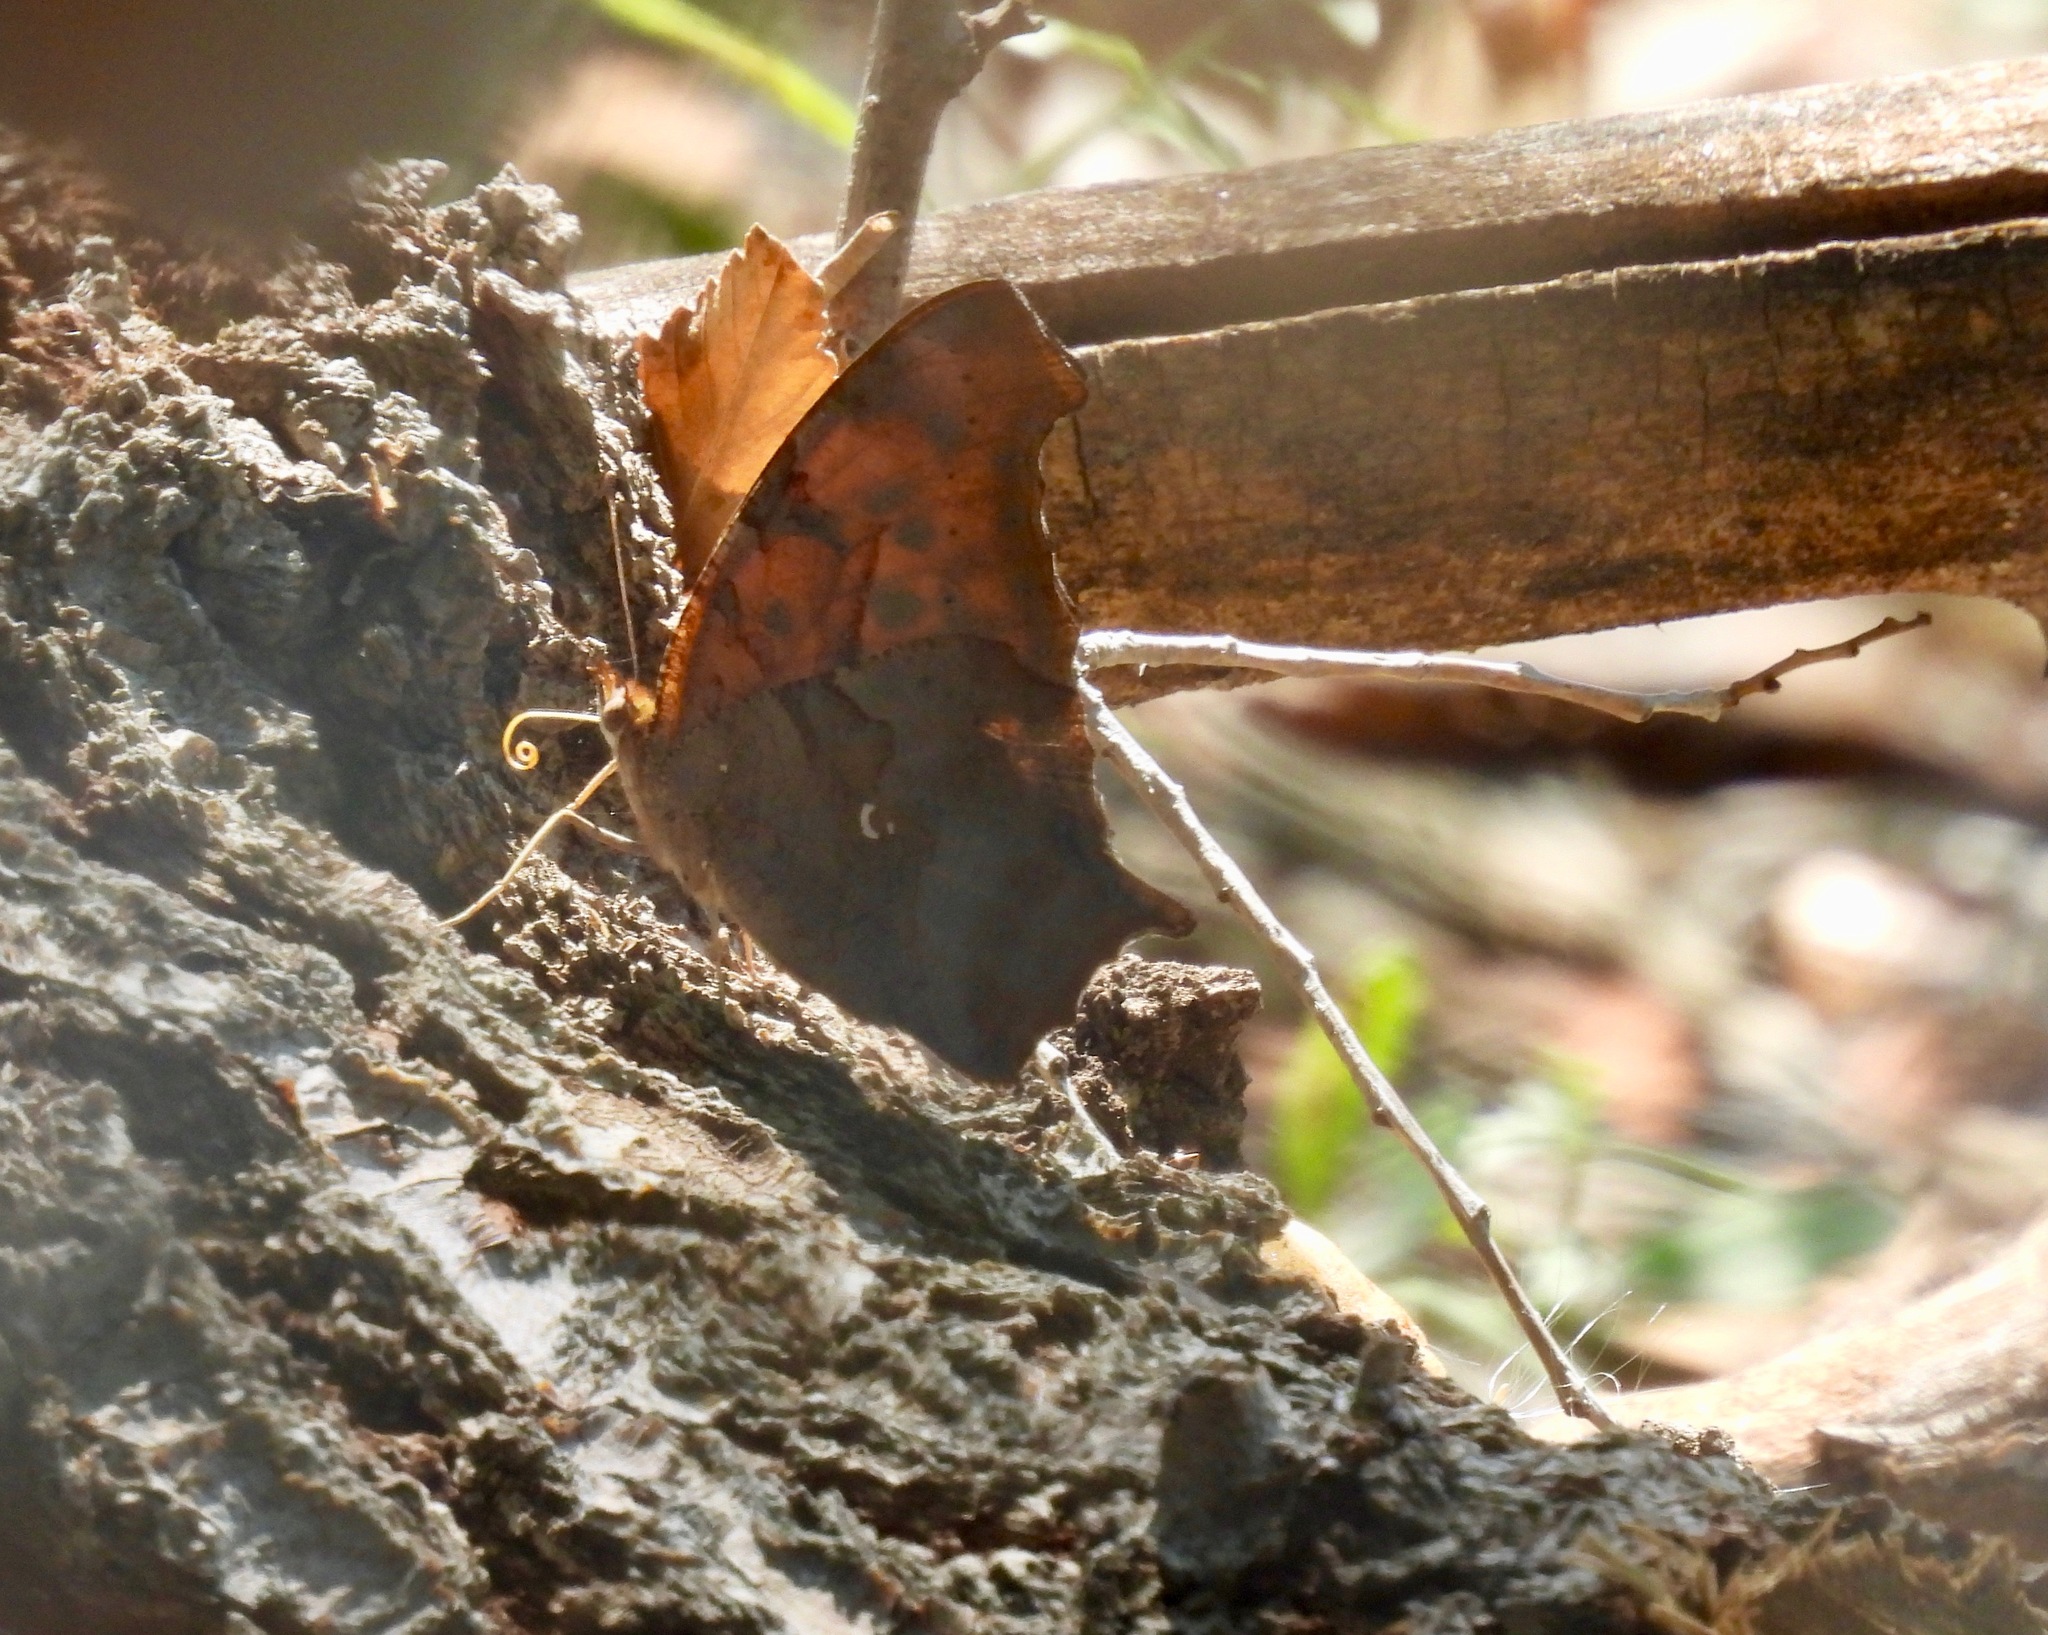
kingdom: Animalia
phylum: Arthropoda
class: Insecta
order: Lepidoptera
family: Nymphalidae
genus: Polygonia
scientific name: Polygonia interrogationis
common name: Question mark
